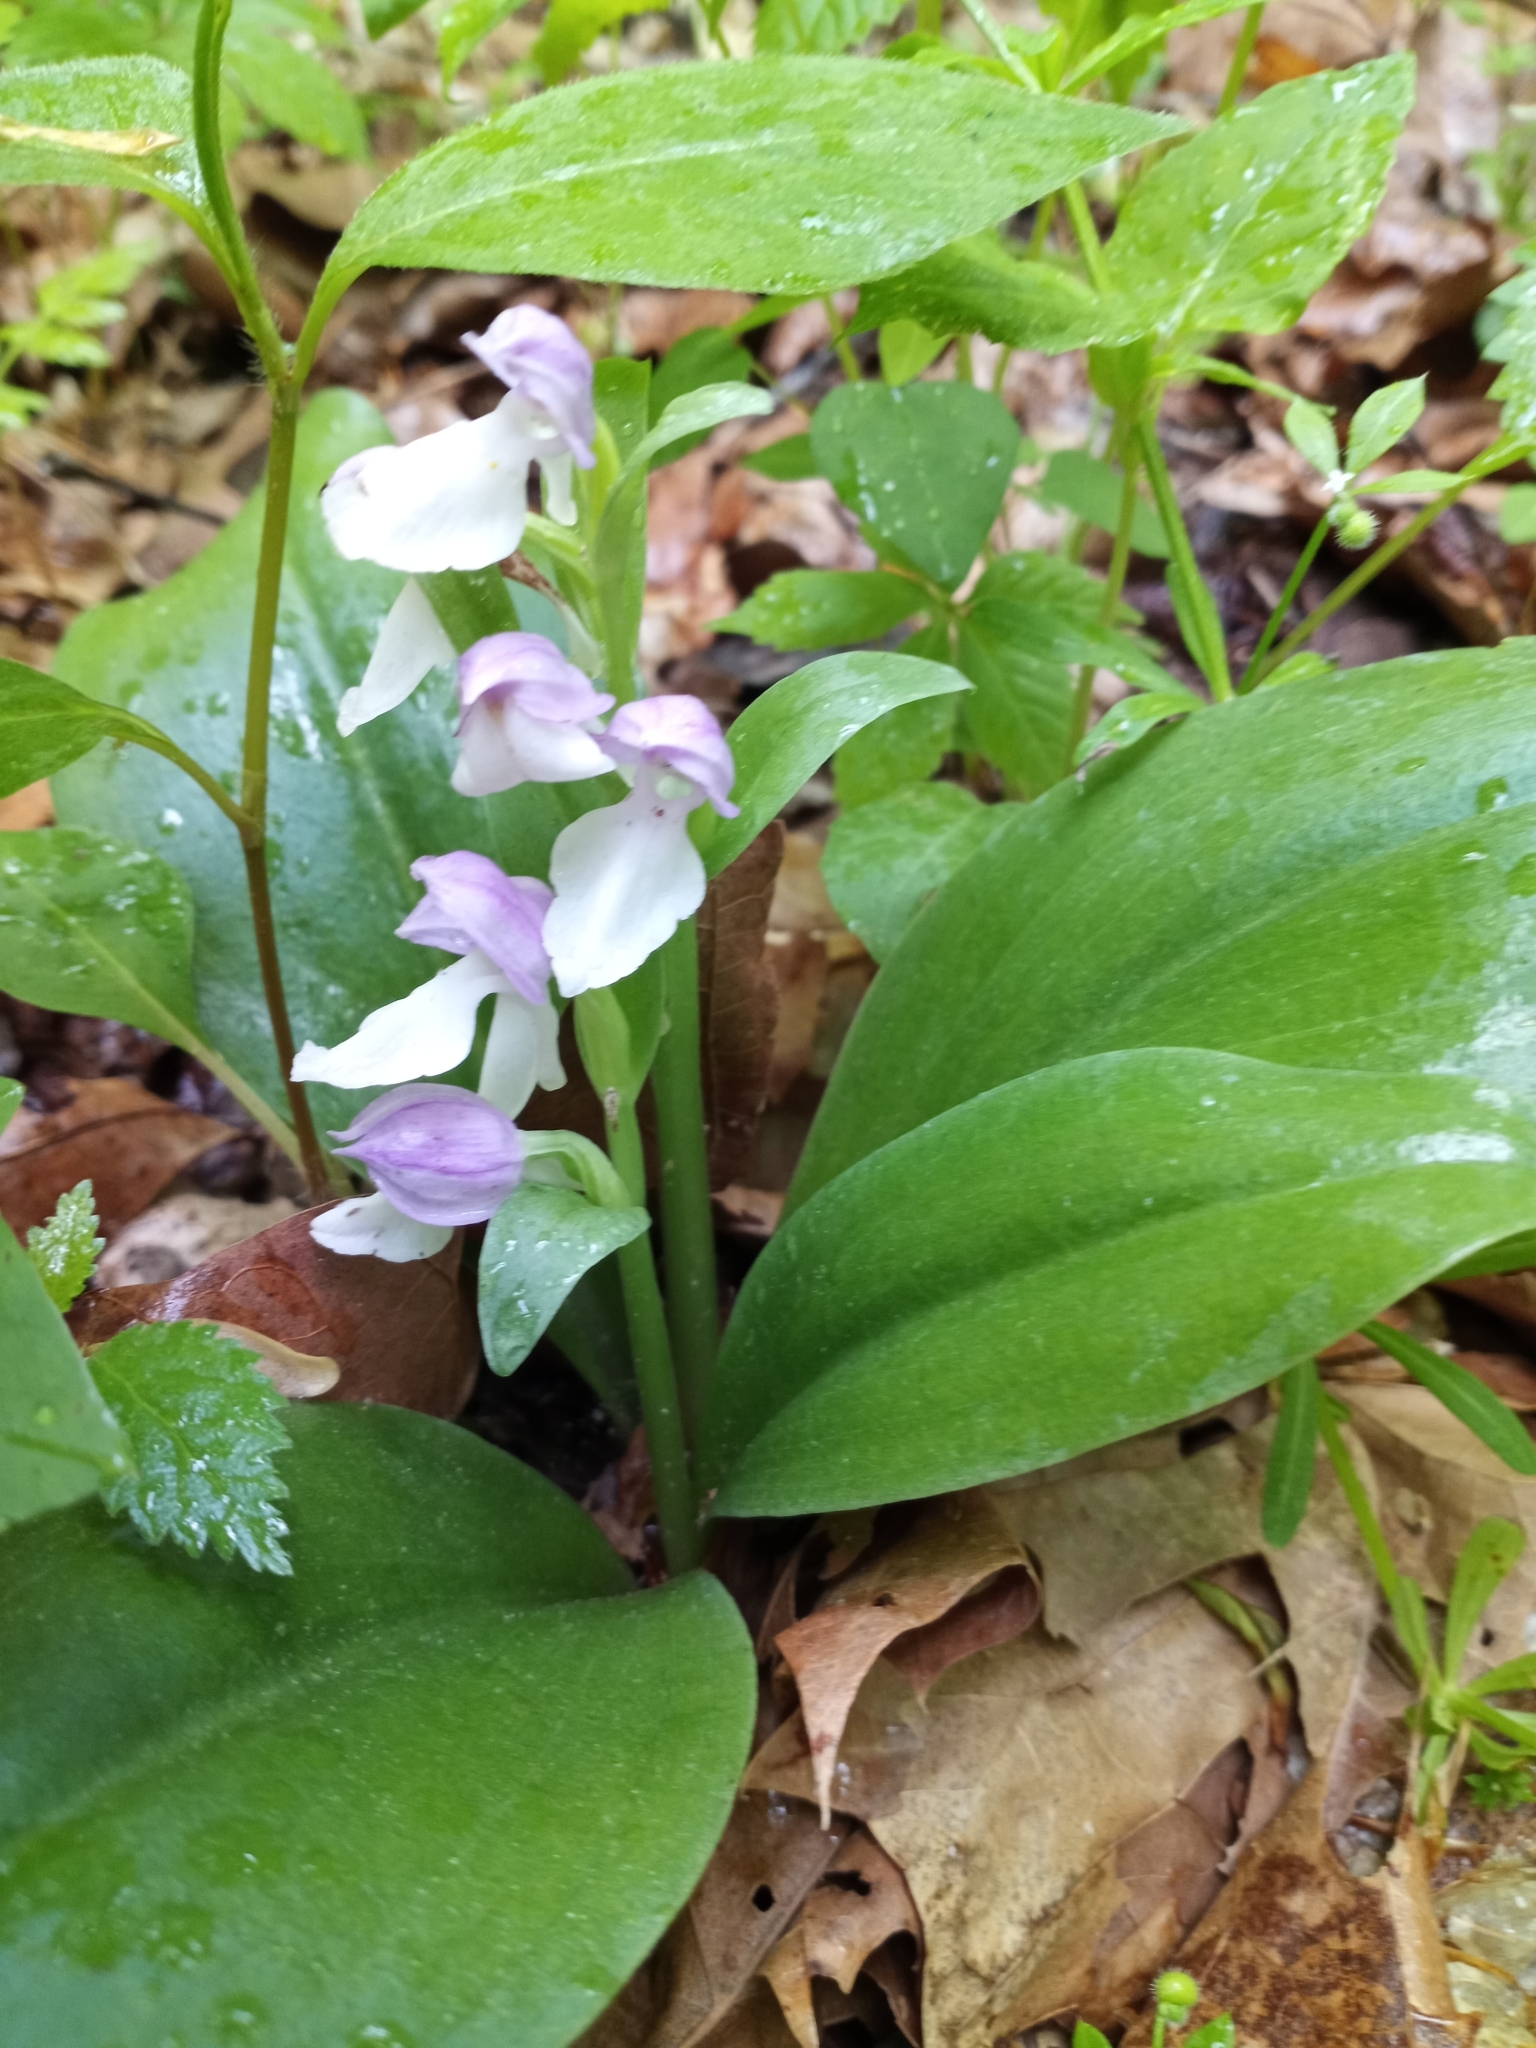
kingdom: Plantae
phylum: Tracheophyta
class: Liliopsida
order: Asparagales
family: Orchidaceae
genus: Galearis
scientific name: Galearis spectabilis
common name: Purple-hooded orchis
